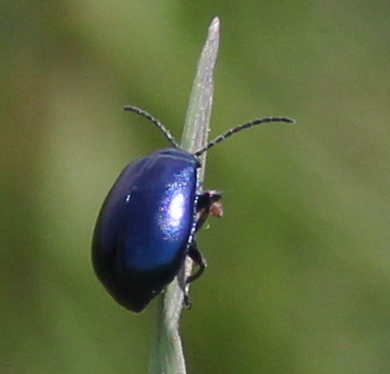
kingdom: Animalia
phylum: Arthropoda
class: Insecta
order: Coleoptera
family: Chrysomelidae
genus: Agelastica
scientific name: Agelastica alni
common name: Alder leaf beetle
